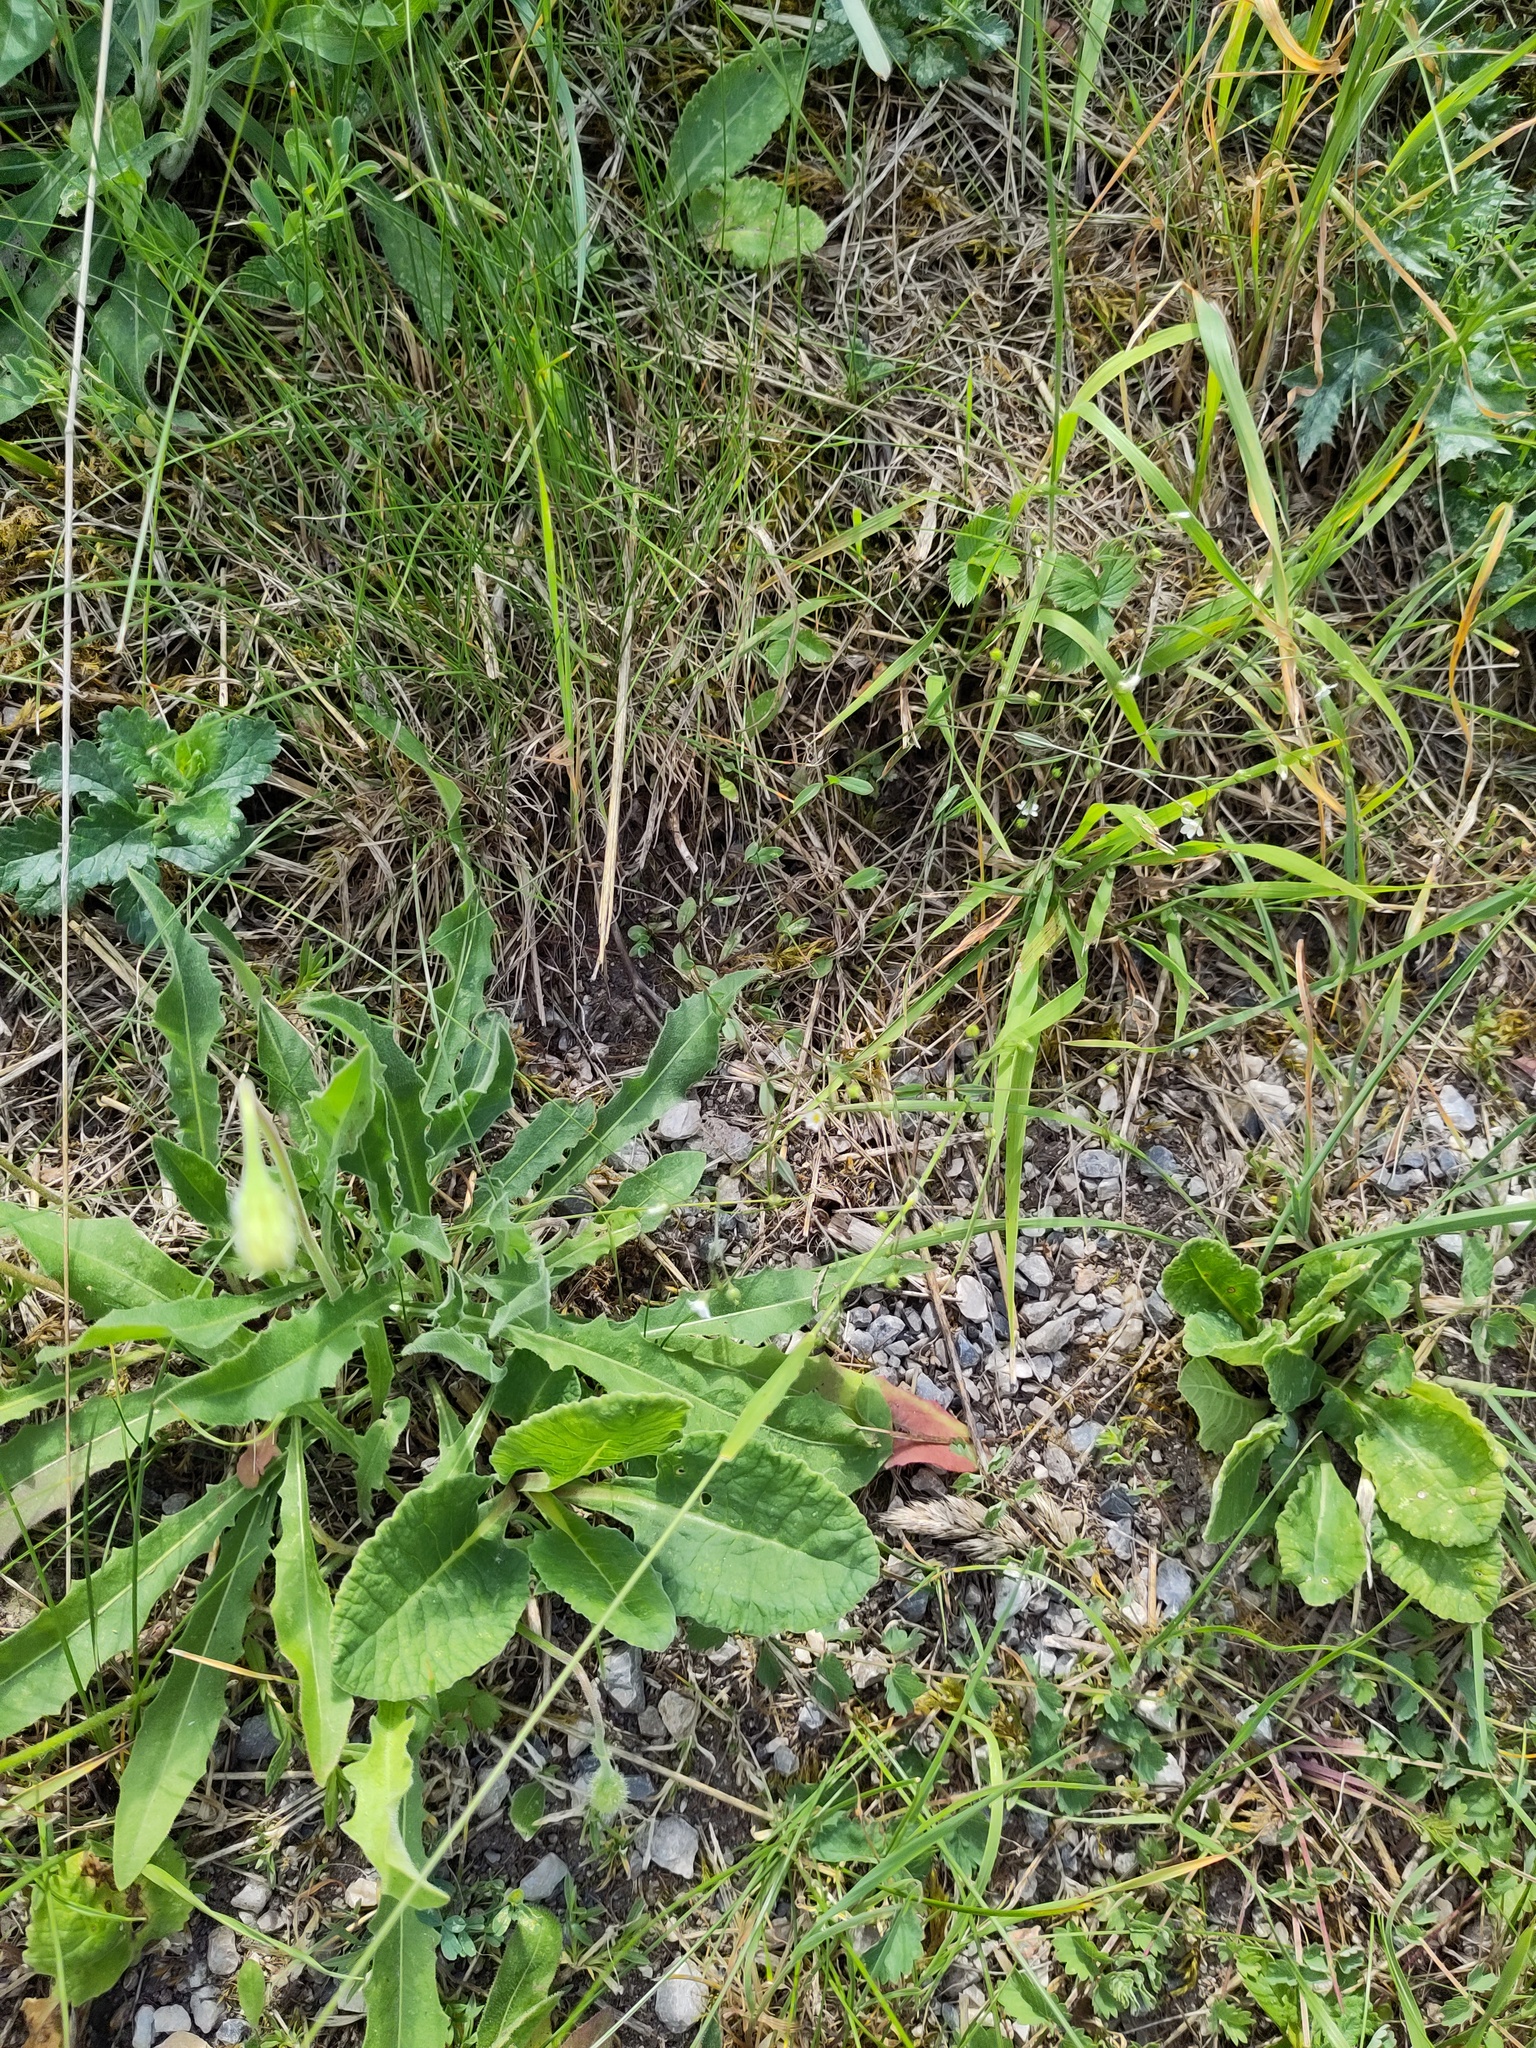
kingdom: Plantae
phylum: Tracheophyta
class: Magnoliopsida
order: Malpighiales
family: Linaceae
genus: Linum
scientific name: Linum catharticum
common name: Fairy flax
